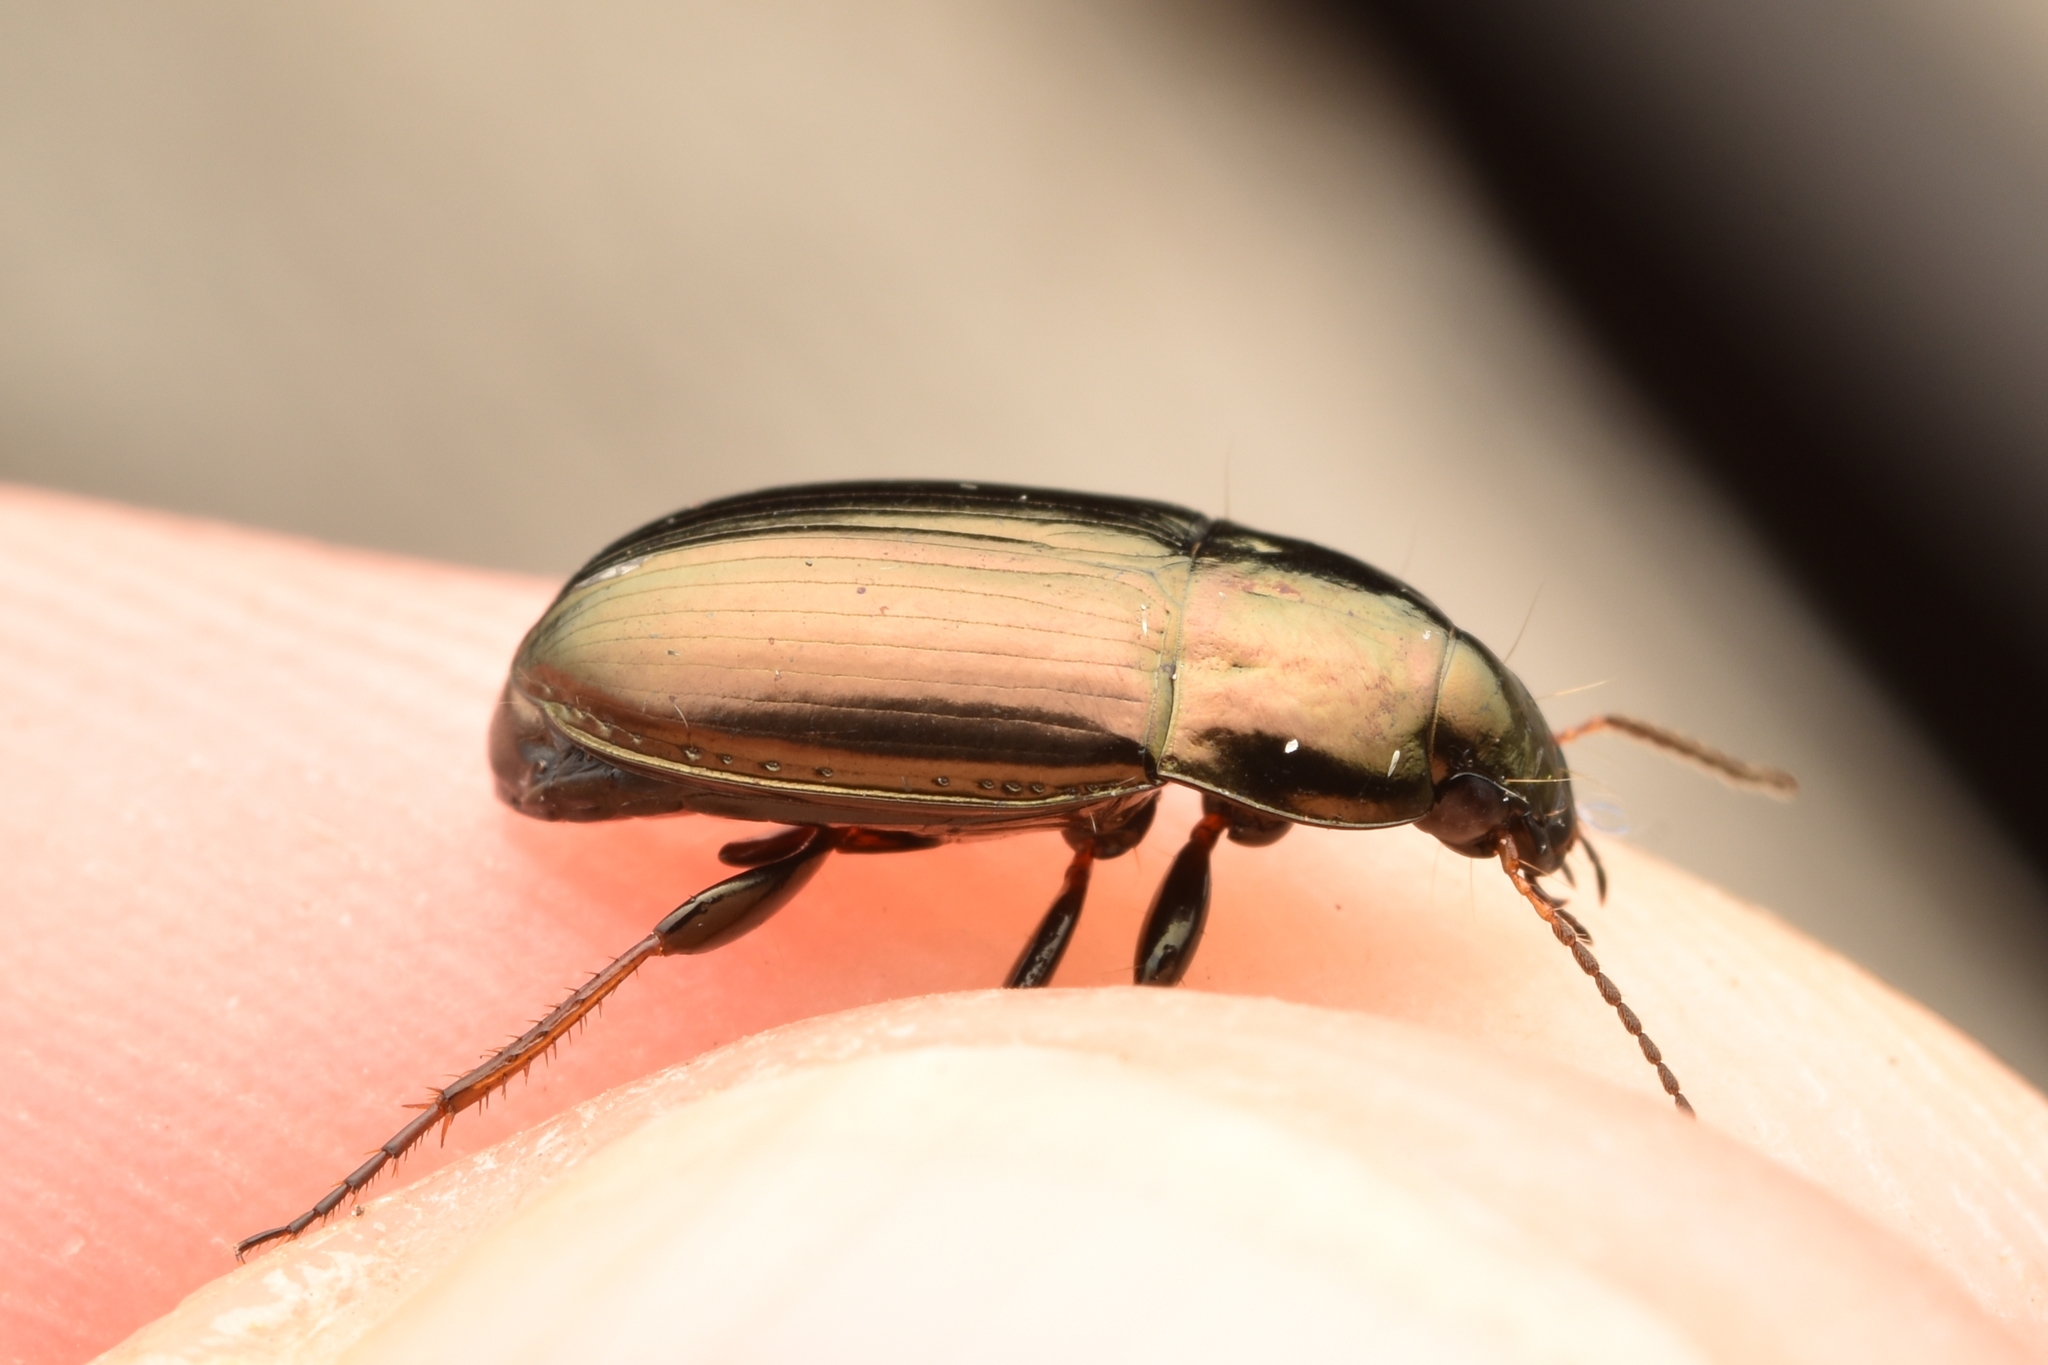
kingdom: Animalia
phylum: Arthropoda
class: Insecta
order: Coleoptera
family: Carabidae
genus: Amara
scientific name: Amara aenea
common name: Common sun beetle
